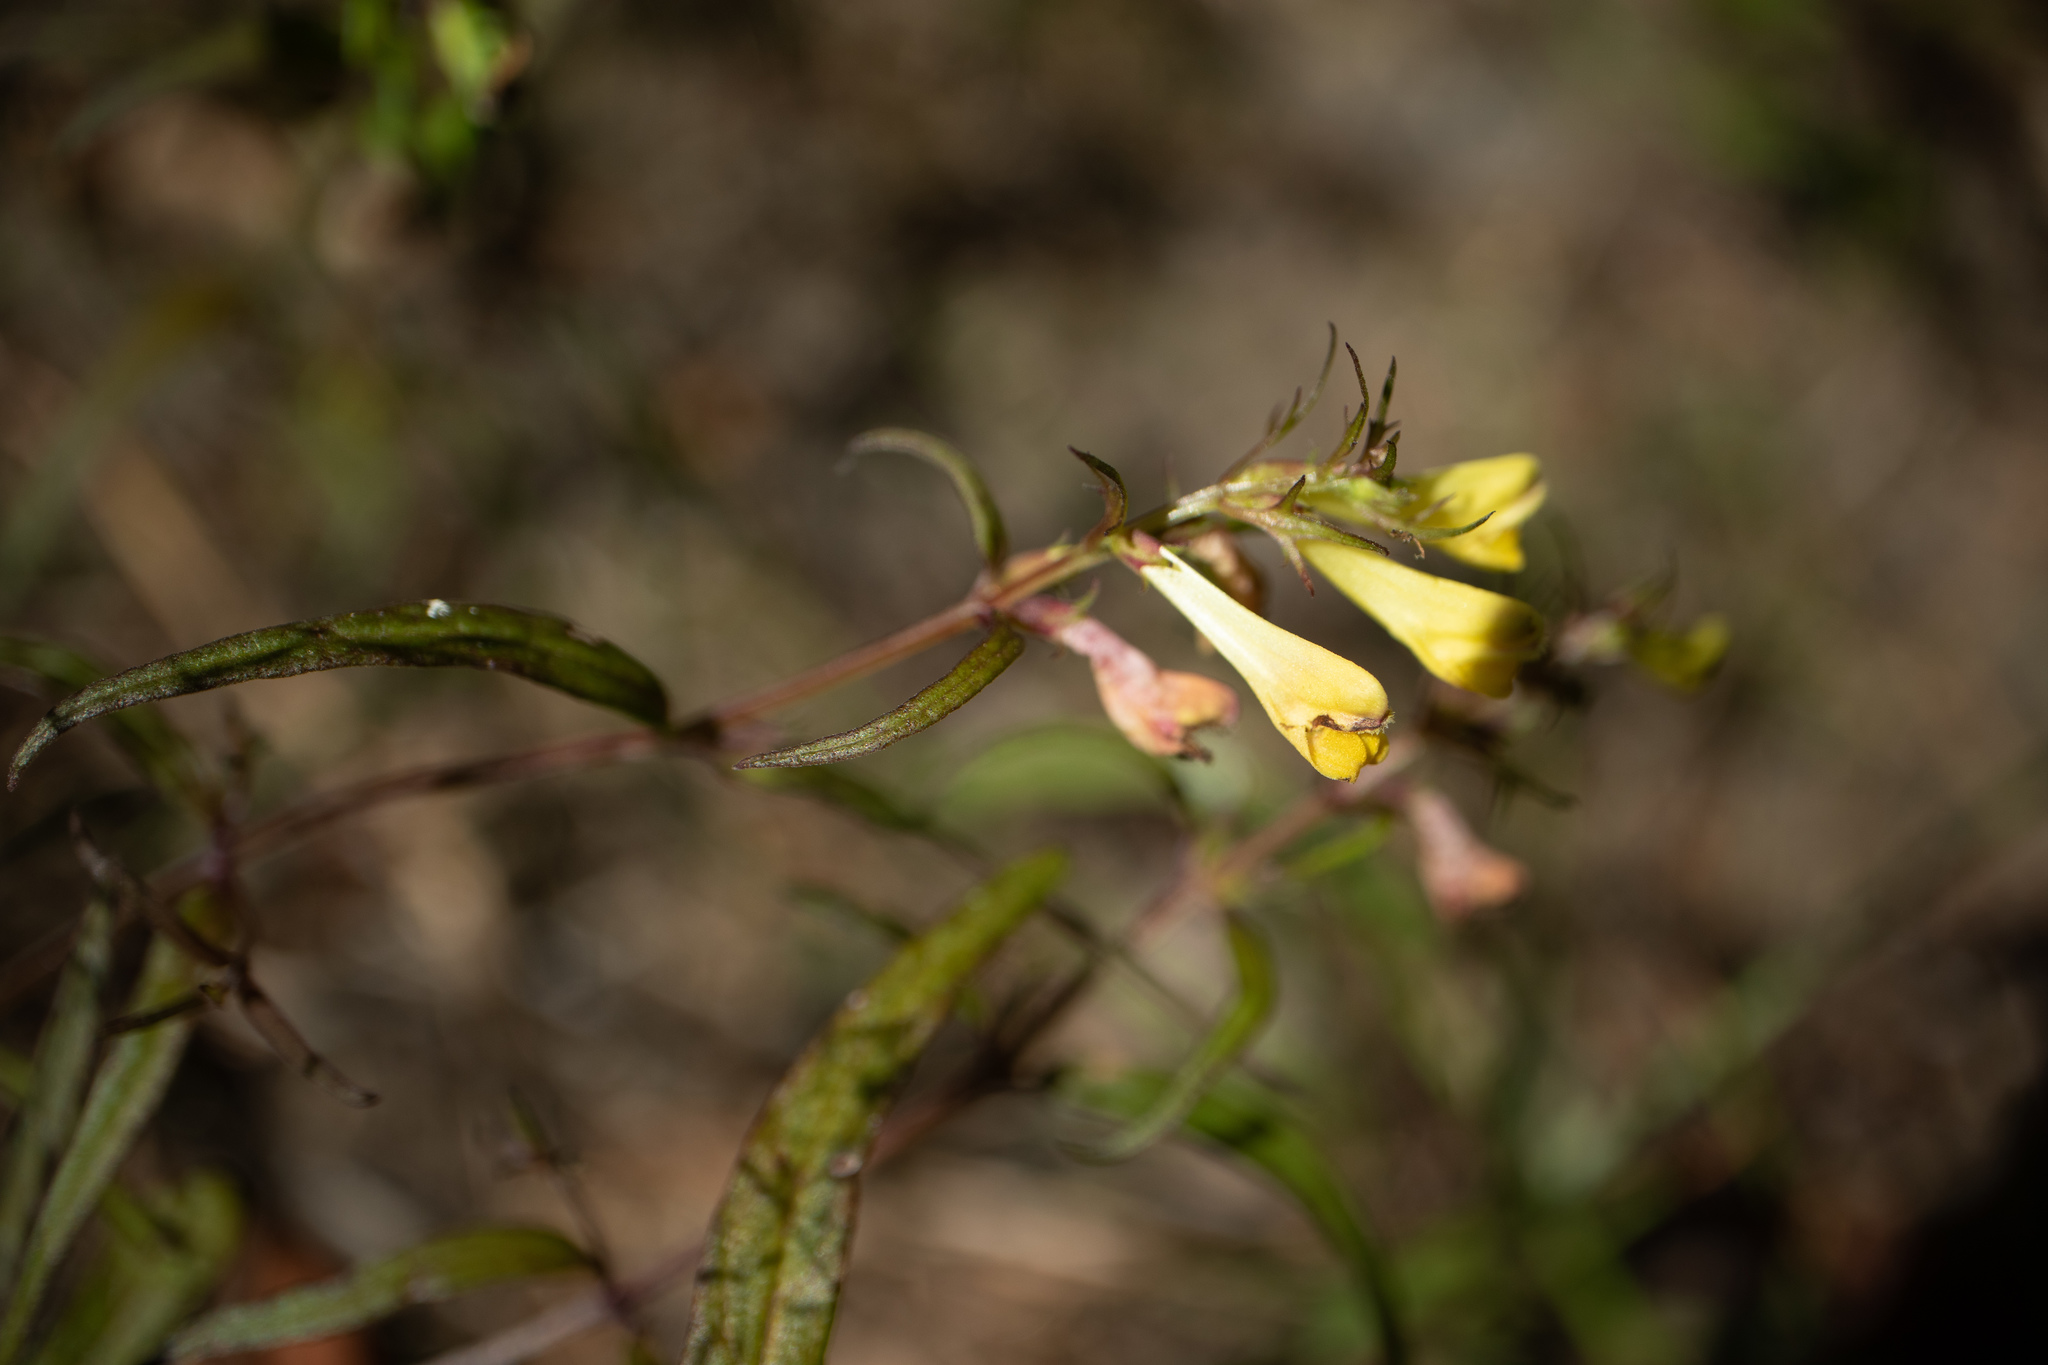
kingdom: Plantae
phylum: Tracheophyta
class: Magnoliopsida
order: Lamiales
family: Orobanchaceae
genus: Melampyrum
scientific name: Melampyrum pratense
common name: Common cow-wheat
